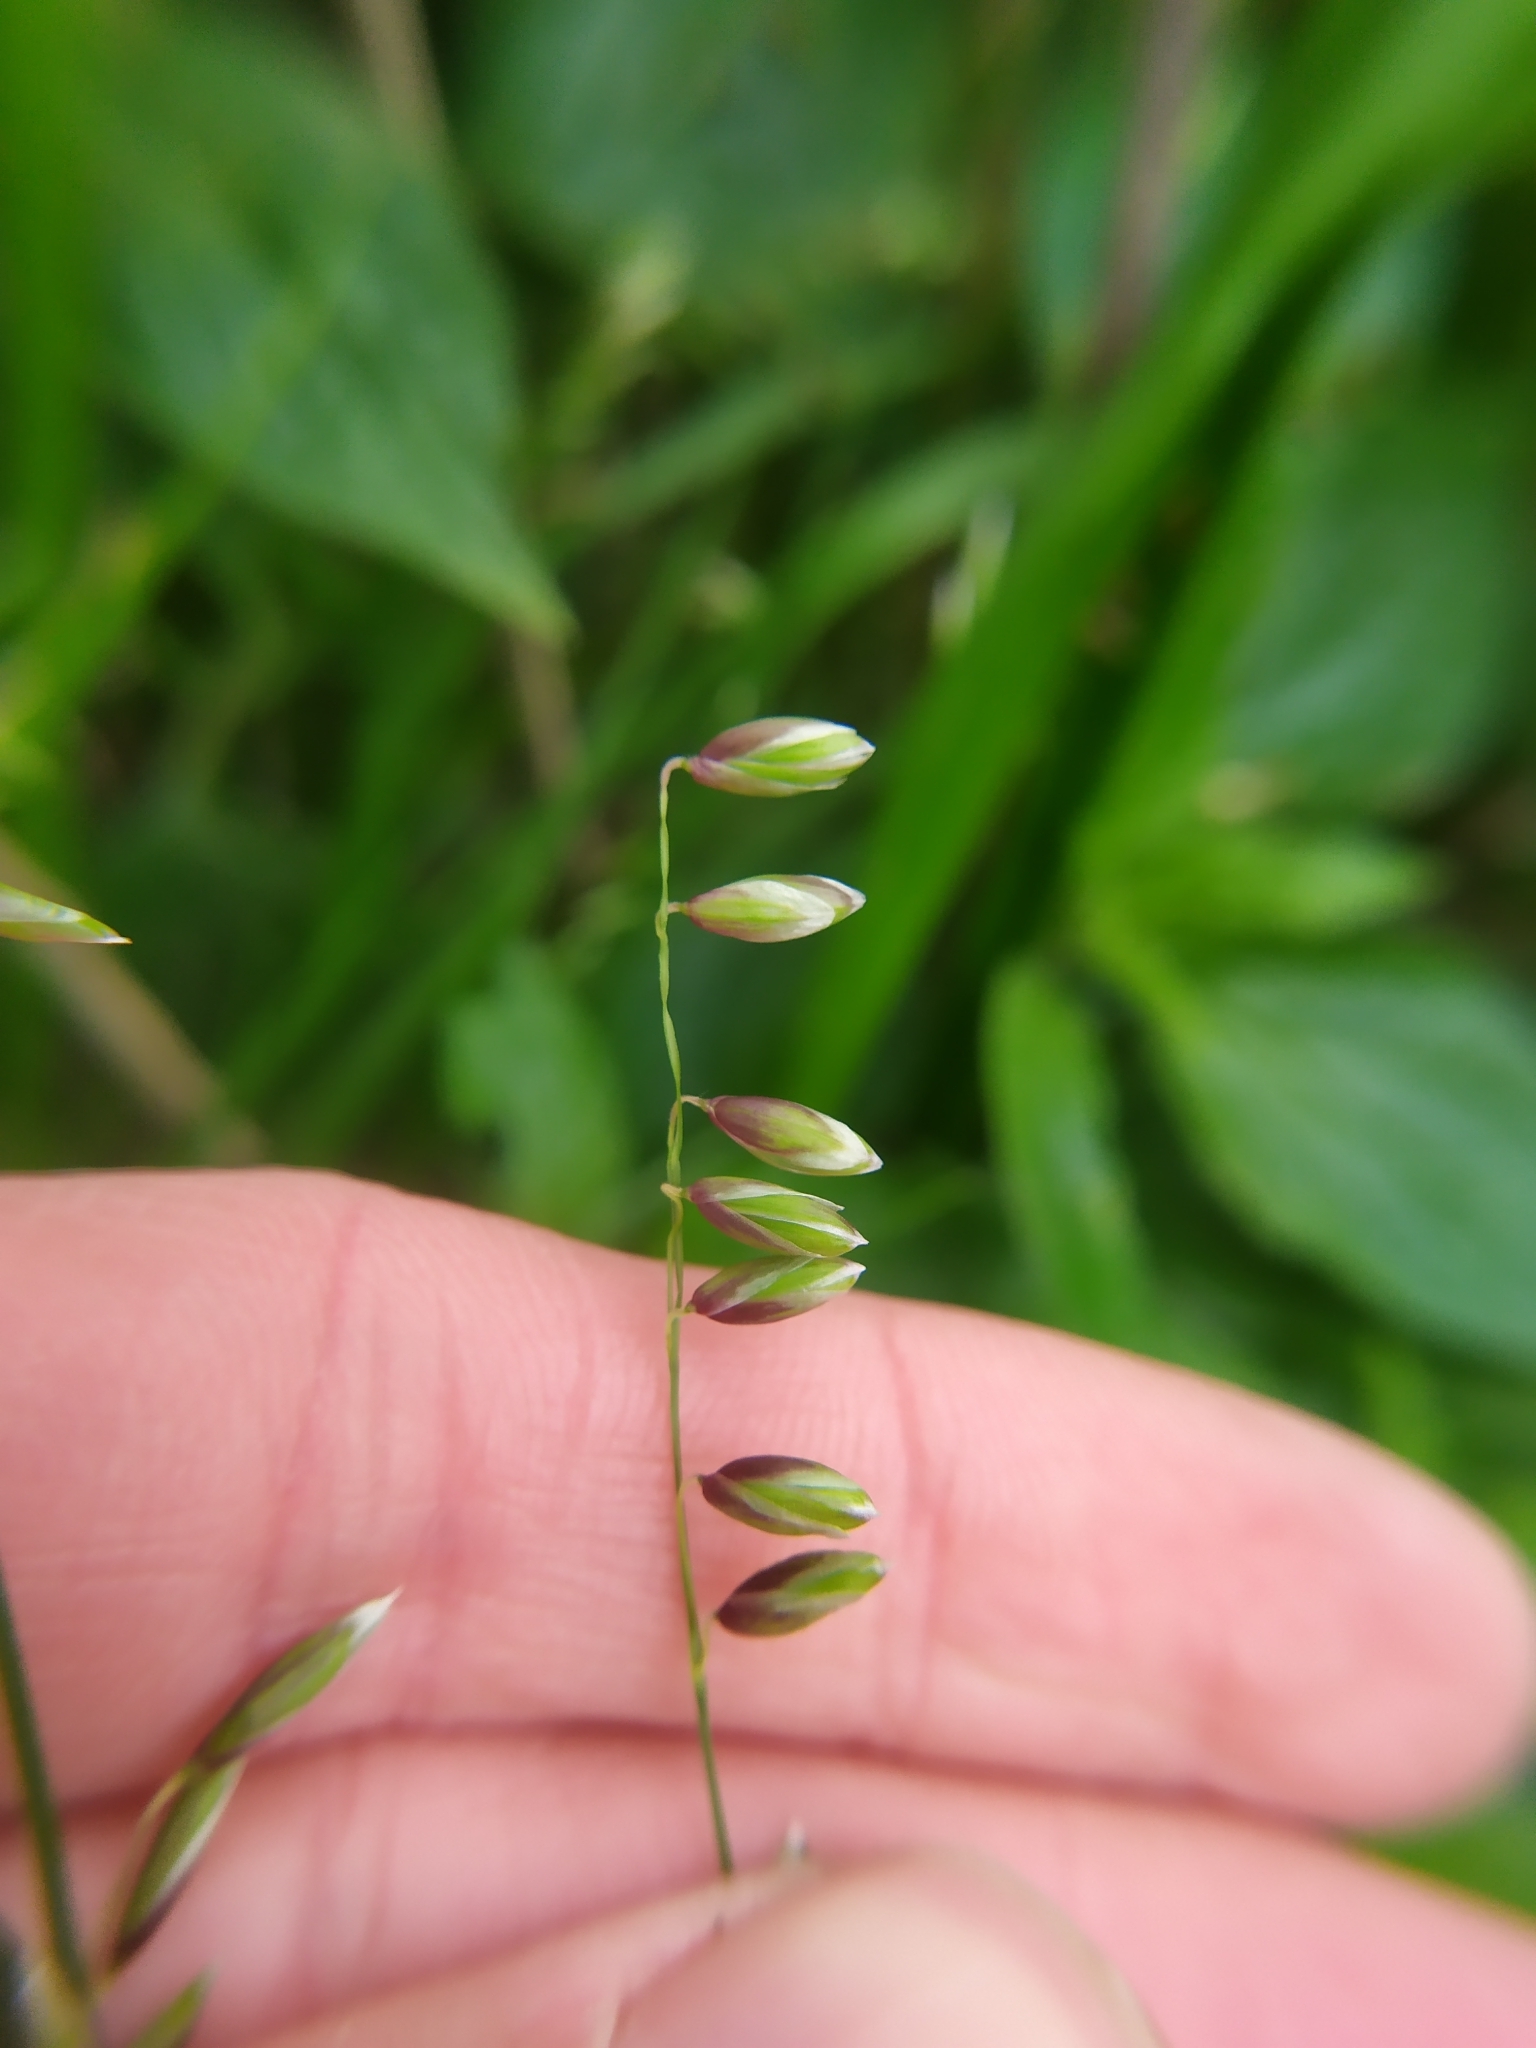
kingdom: Plantae
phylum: Tracheophyta
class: Liliopsida
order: Poales
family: Poaceae
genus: Melica
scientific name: Melica nutans
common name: Mountain melick
